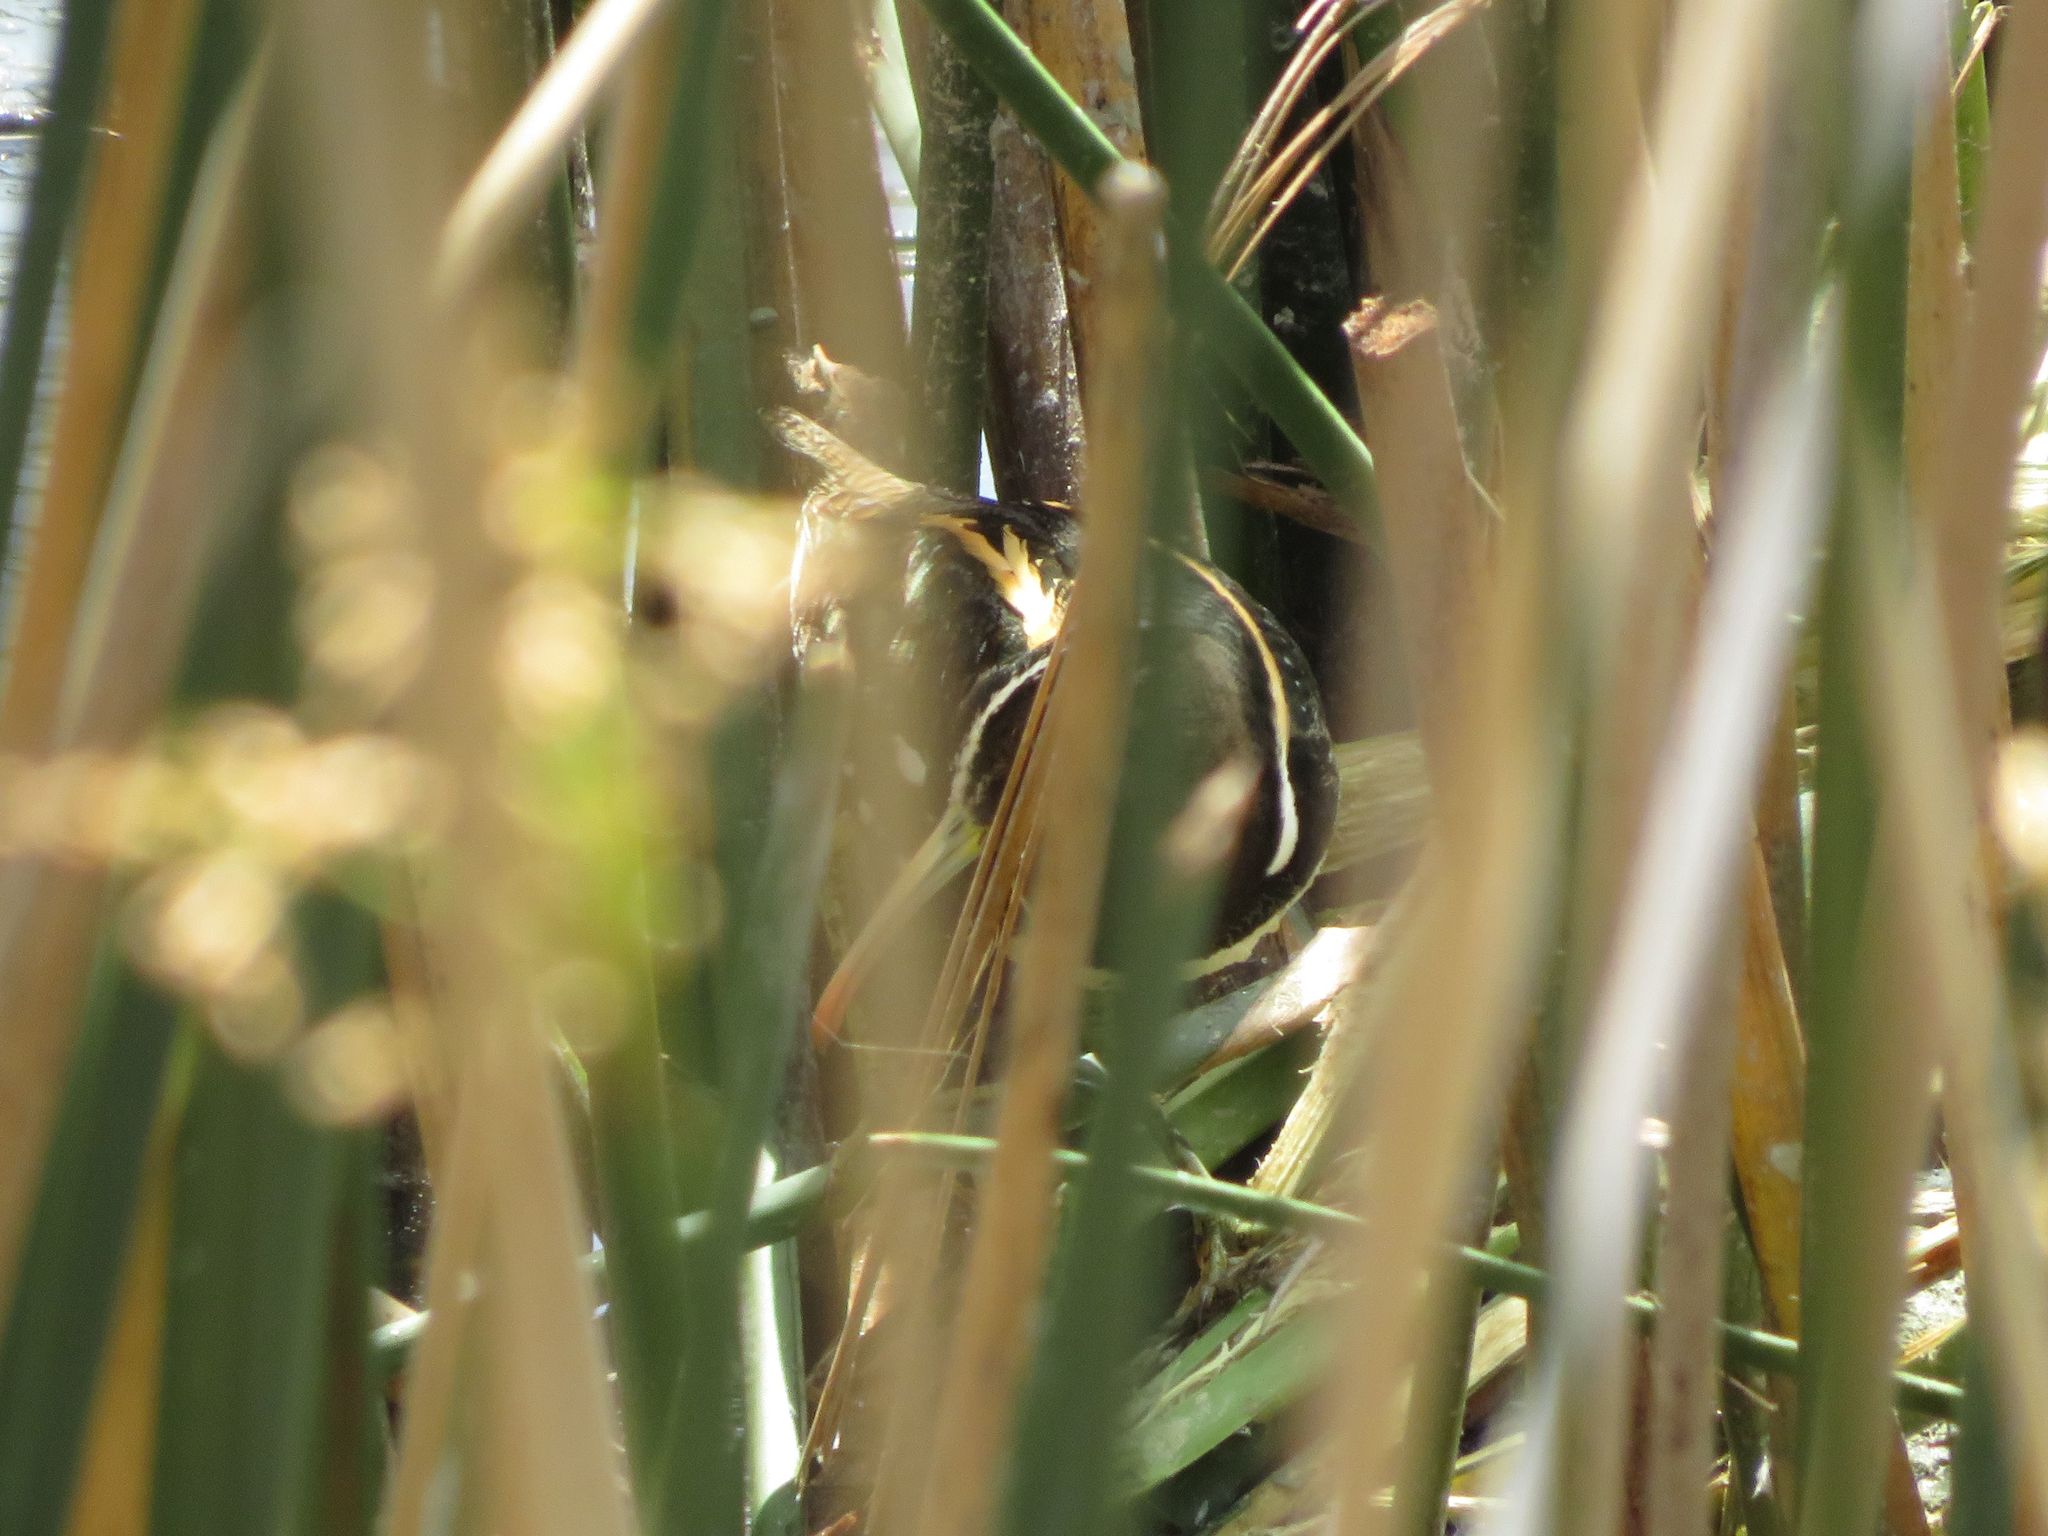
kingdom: Animalia
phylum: Chordata
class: Aves
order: Charadriiformes
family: Rostratulidae
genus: Nycticryphes
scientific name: Nycticryphes semicollaris
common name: South american painted-snipe
